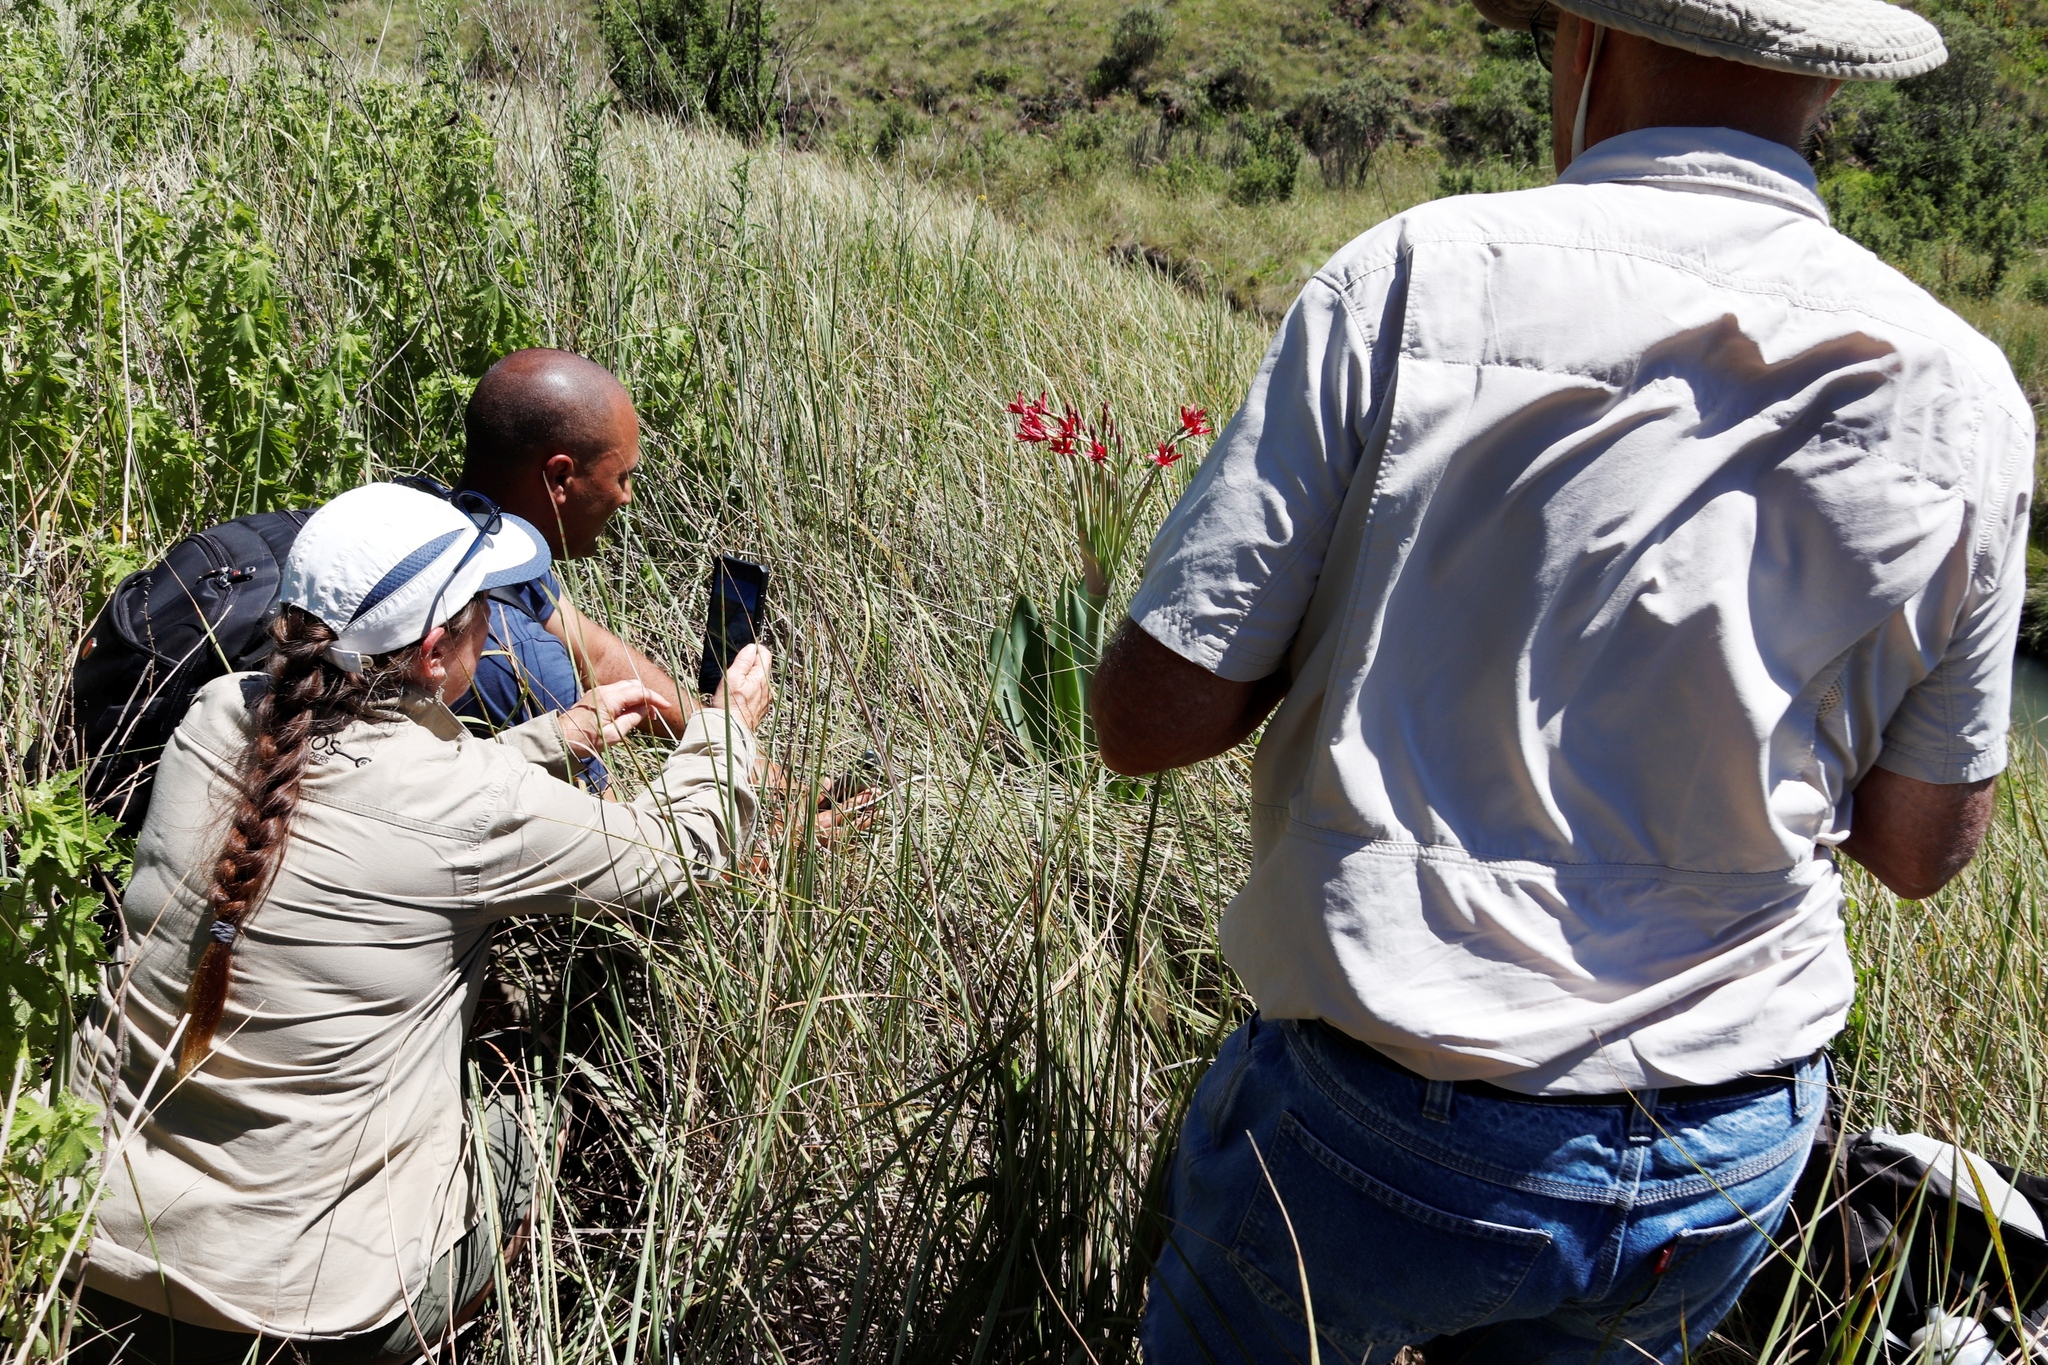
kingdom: Plantae
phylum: Tracheophyta
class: Liliopsida
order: Asparagales
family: Amaryllidaceae
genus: Brunsvigia
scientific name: Brunsvigia undulata
